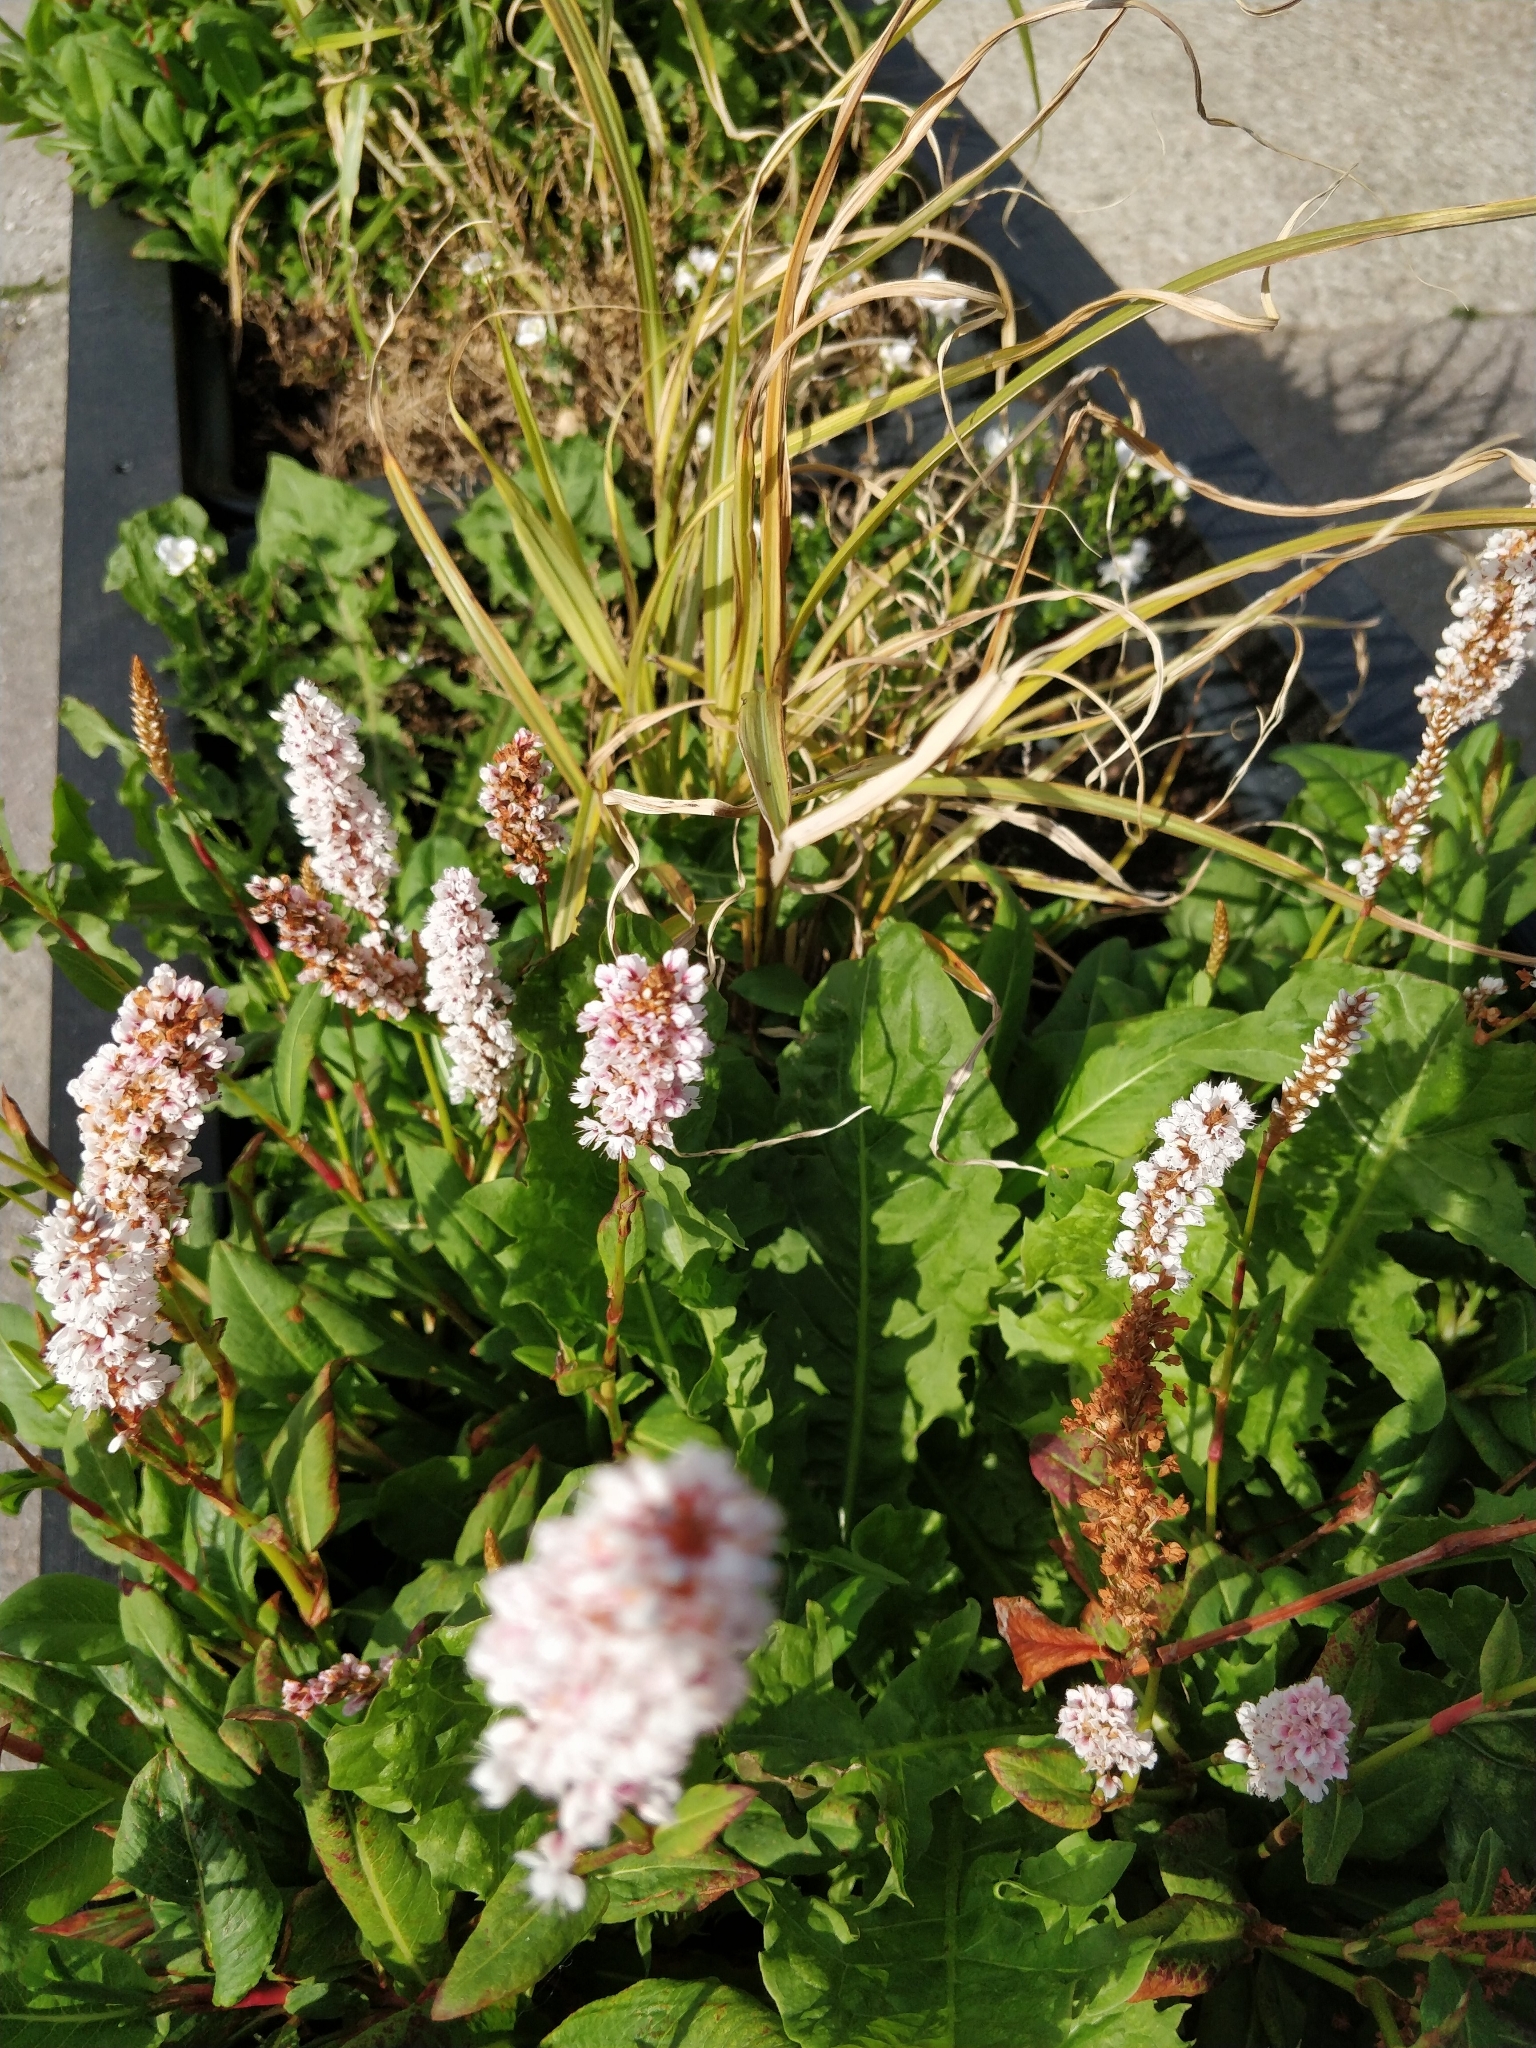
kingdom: Plantae
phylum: Tracheophyta
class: Magnoliopsida
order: Caryophyllales
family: Polygonaceae
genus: Bistorta
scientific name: Bistorta officinalis
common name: Common bistort
